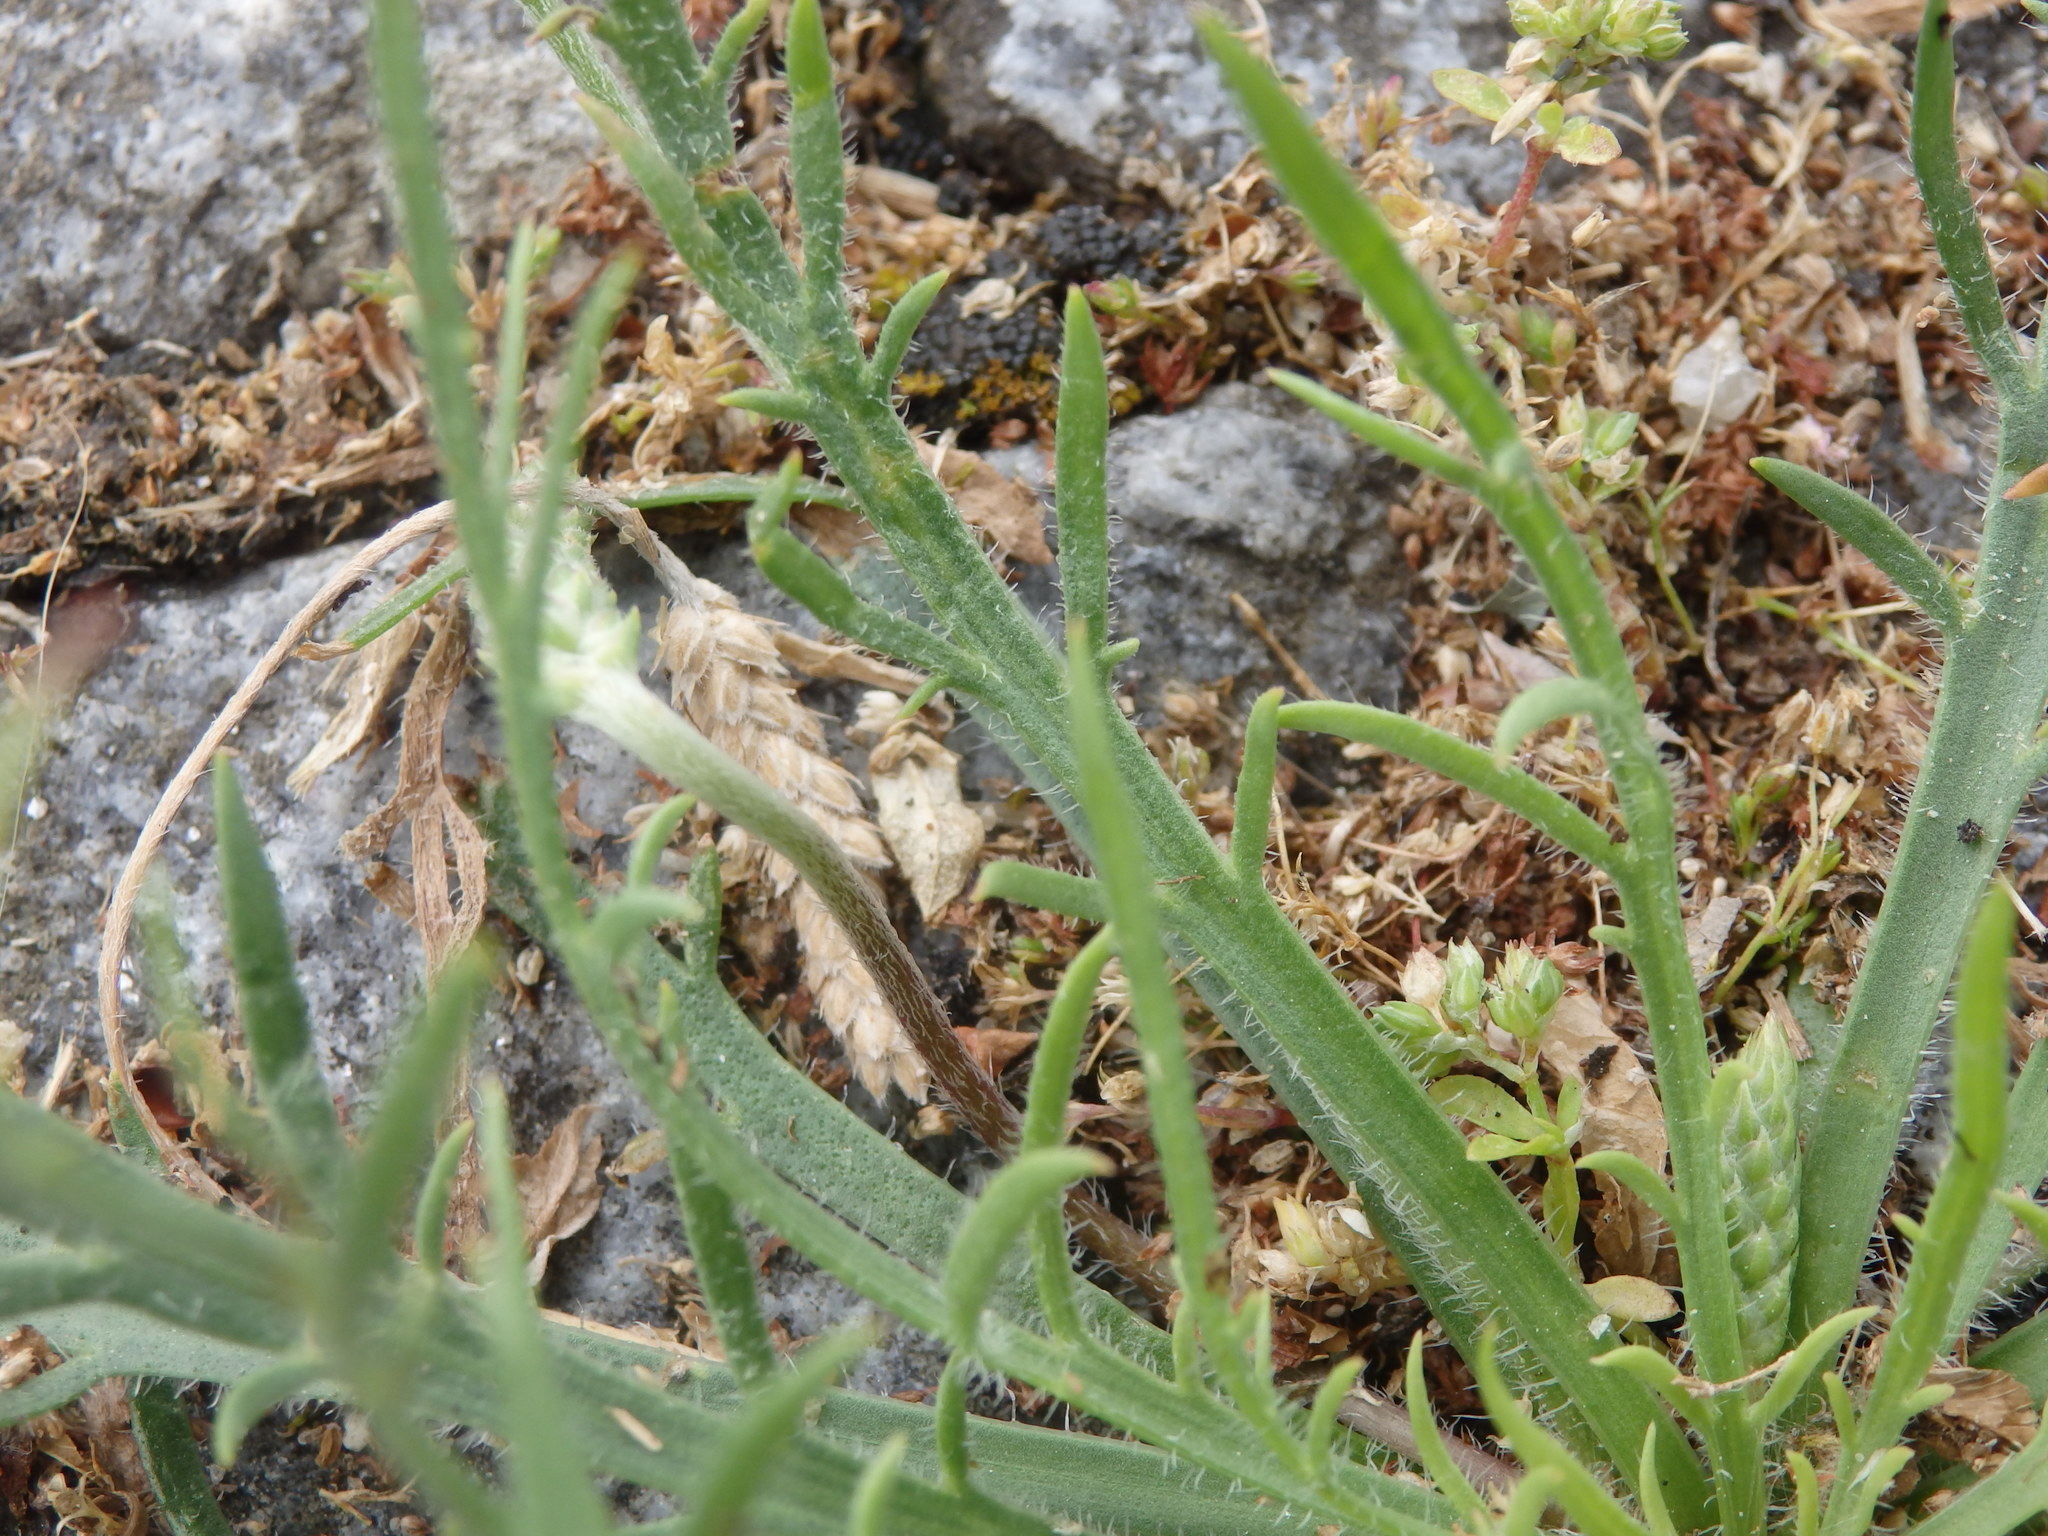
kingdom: Plantae
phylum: Tracheophyta
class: Magnoliopsida
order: Lamiales
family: Plantaginaceae
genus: Plantago
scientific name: Plantago coronopus
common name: Buck's-horn plantain
